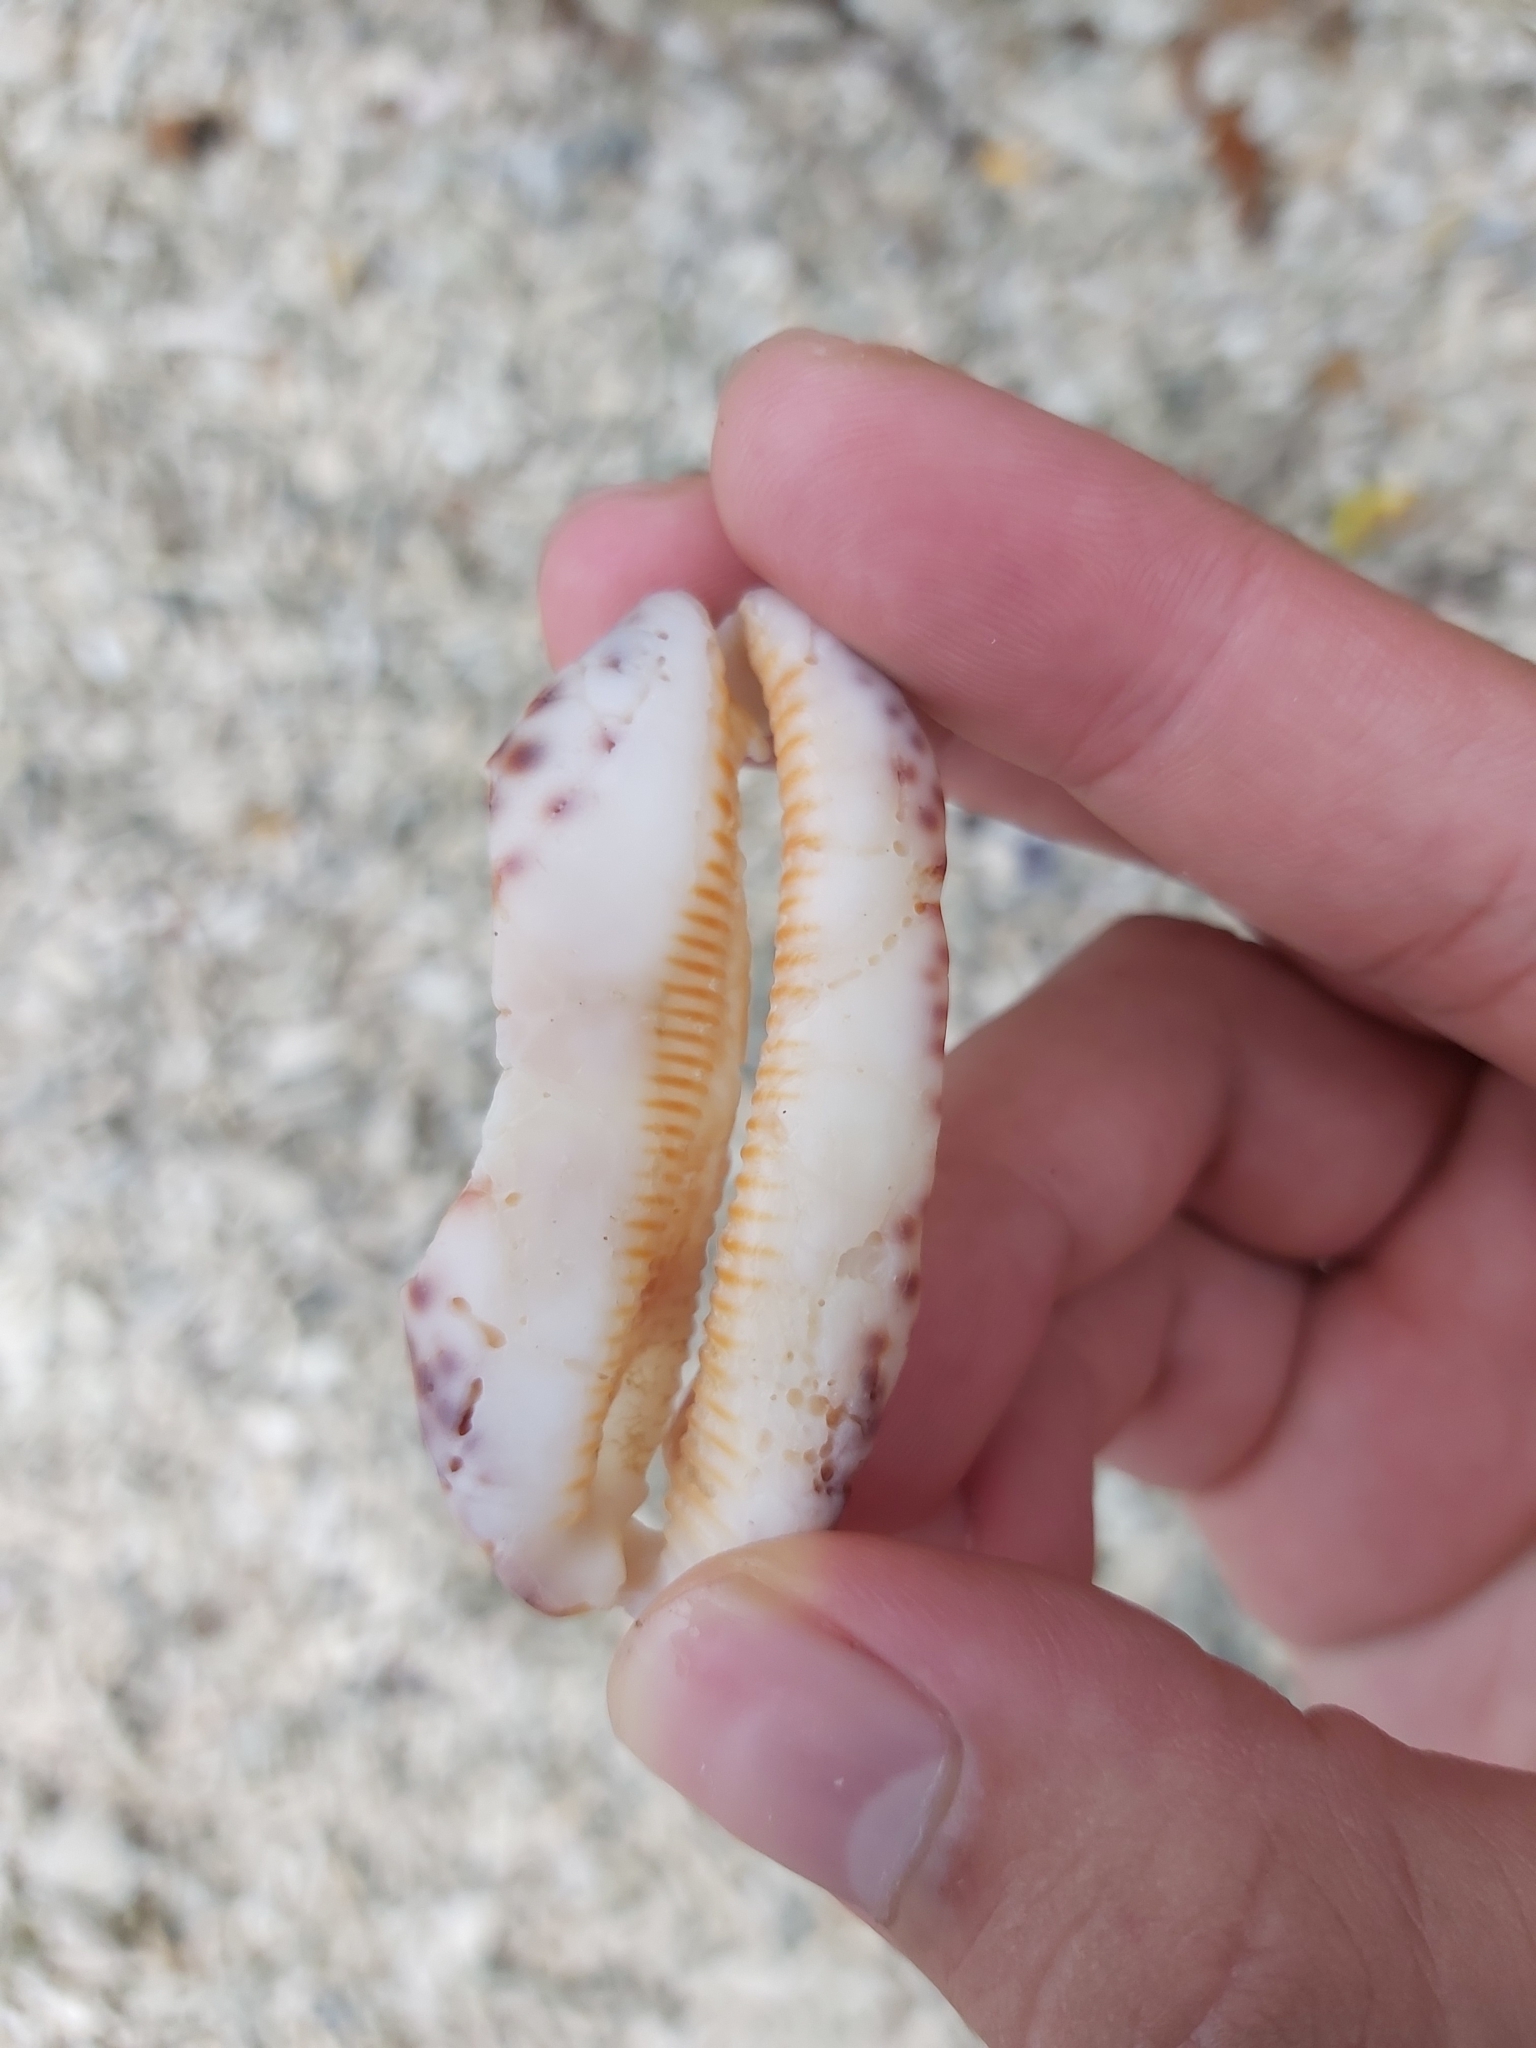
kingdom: Animalia
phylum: Mollusca
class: Gastropoda
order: Littorinimorpha
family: Cypraeidae
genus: Mauritia
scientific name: Mauritia eglantina
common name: Dog-rose cowrie
